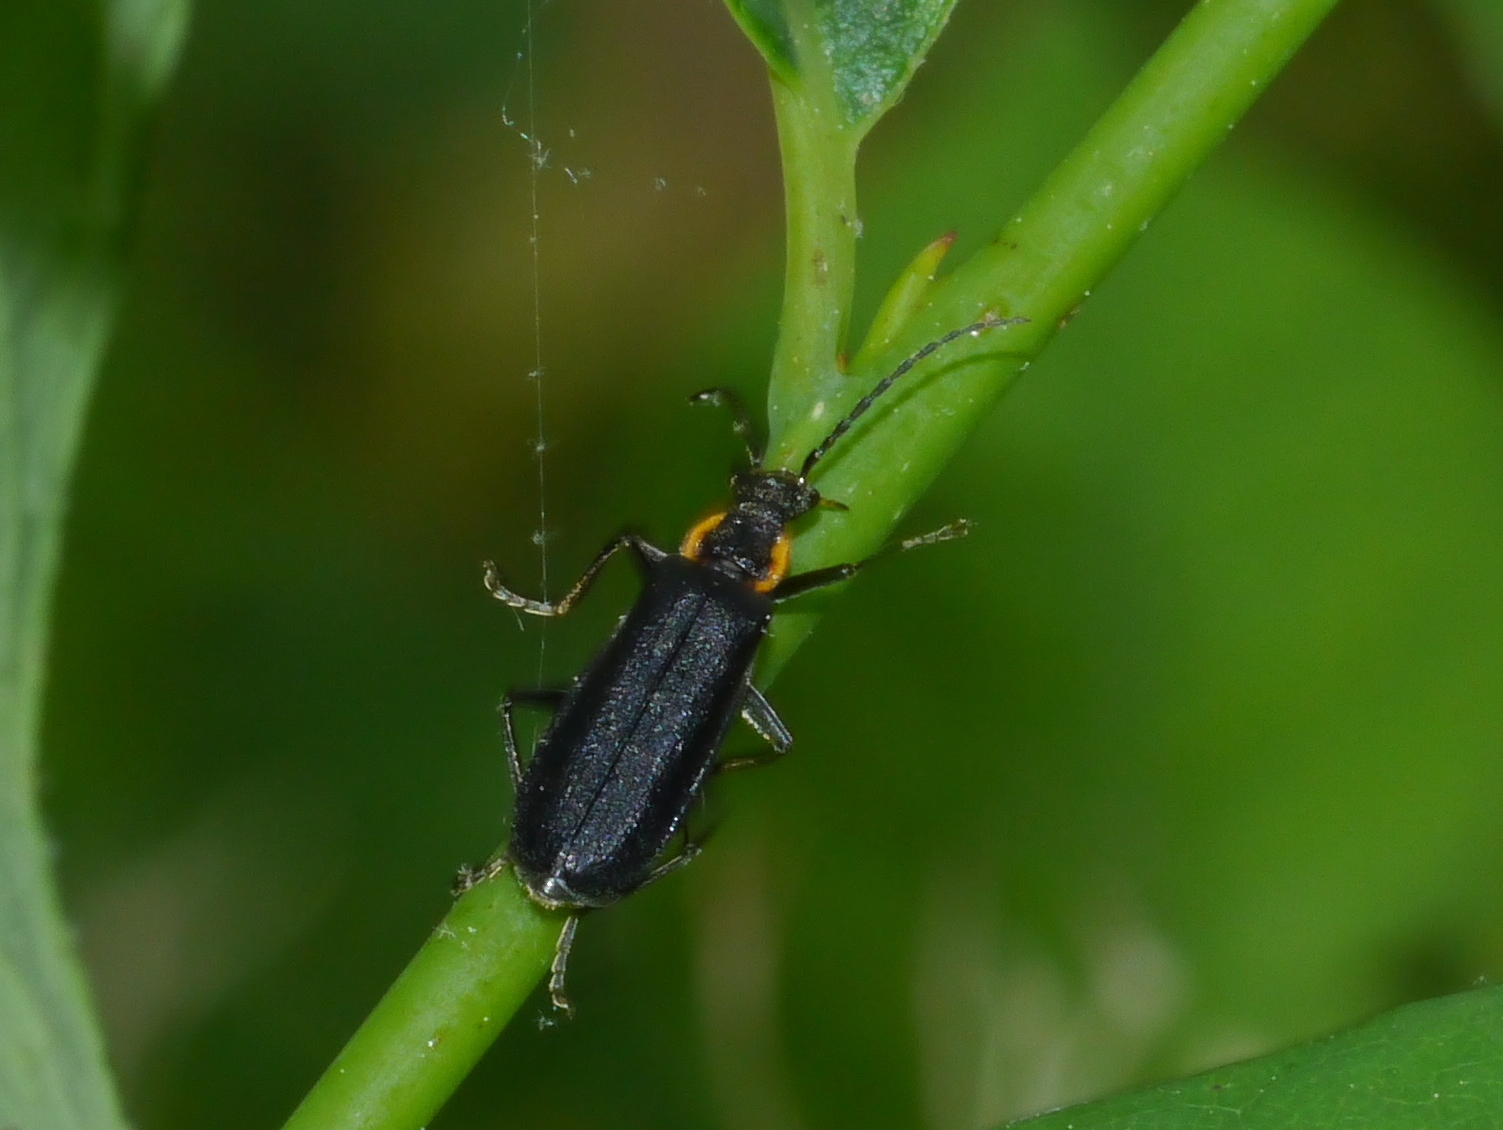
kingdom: Animalia
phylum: Arthropoda
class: Insecta
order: Coleoptera
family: Cantharidae
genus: Podabrus
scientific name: Podabrus rugosulus
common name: Wrinkled soldier beetle
